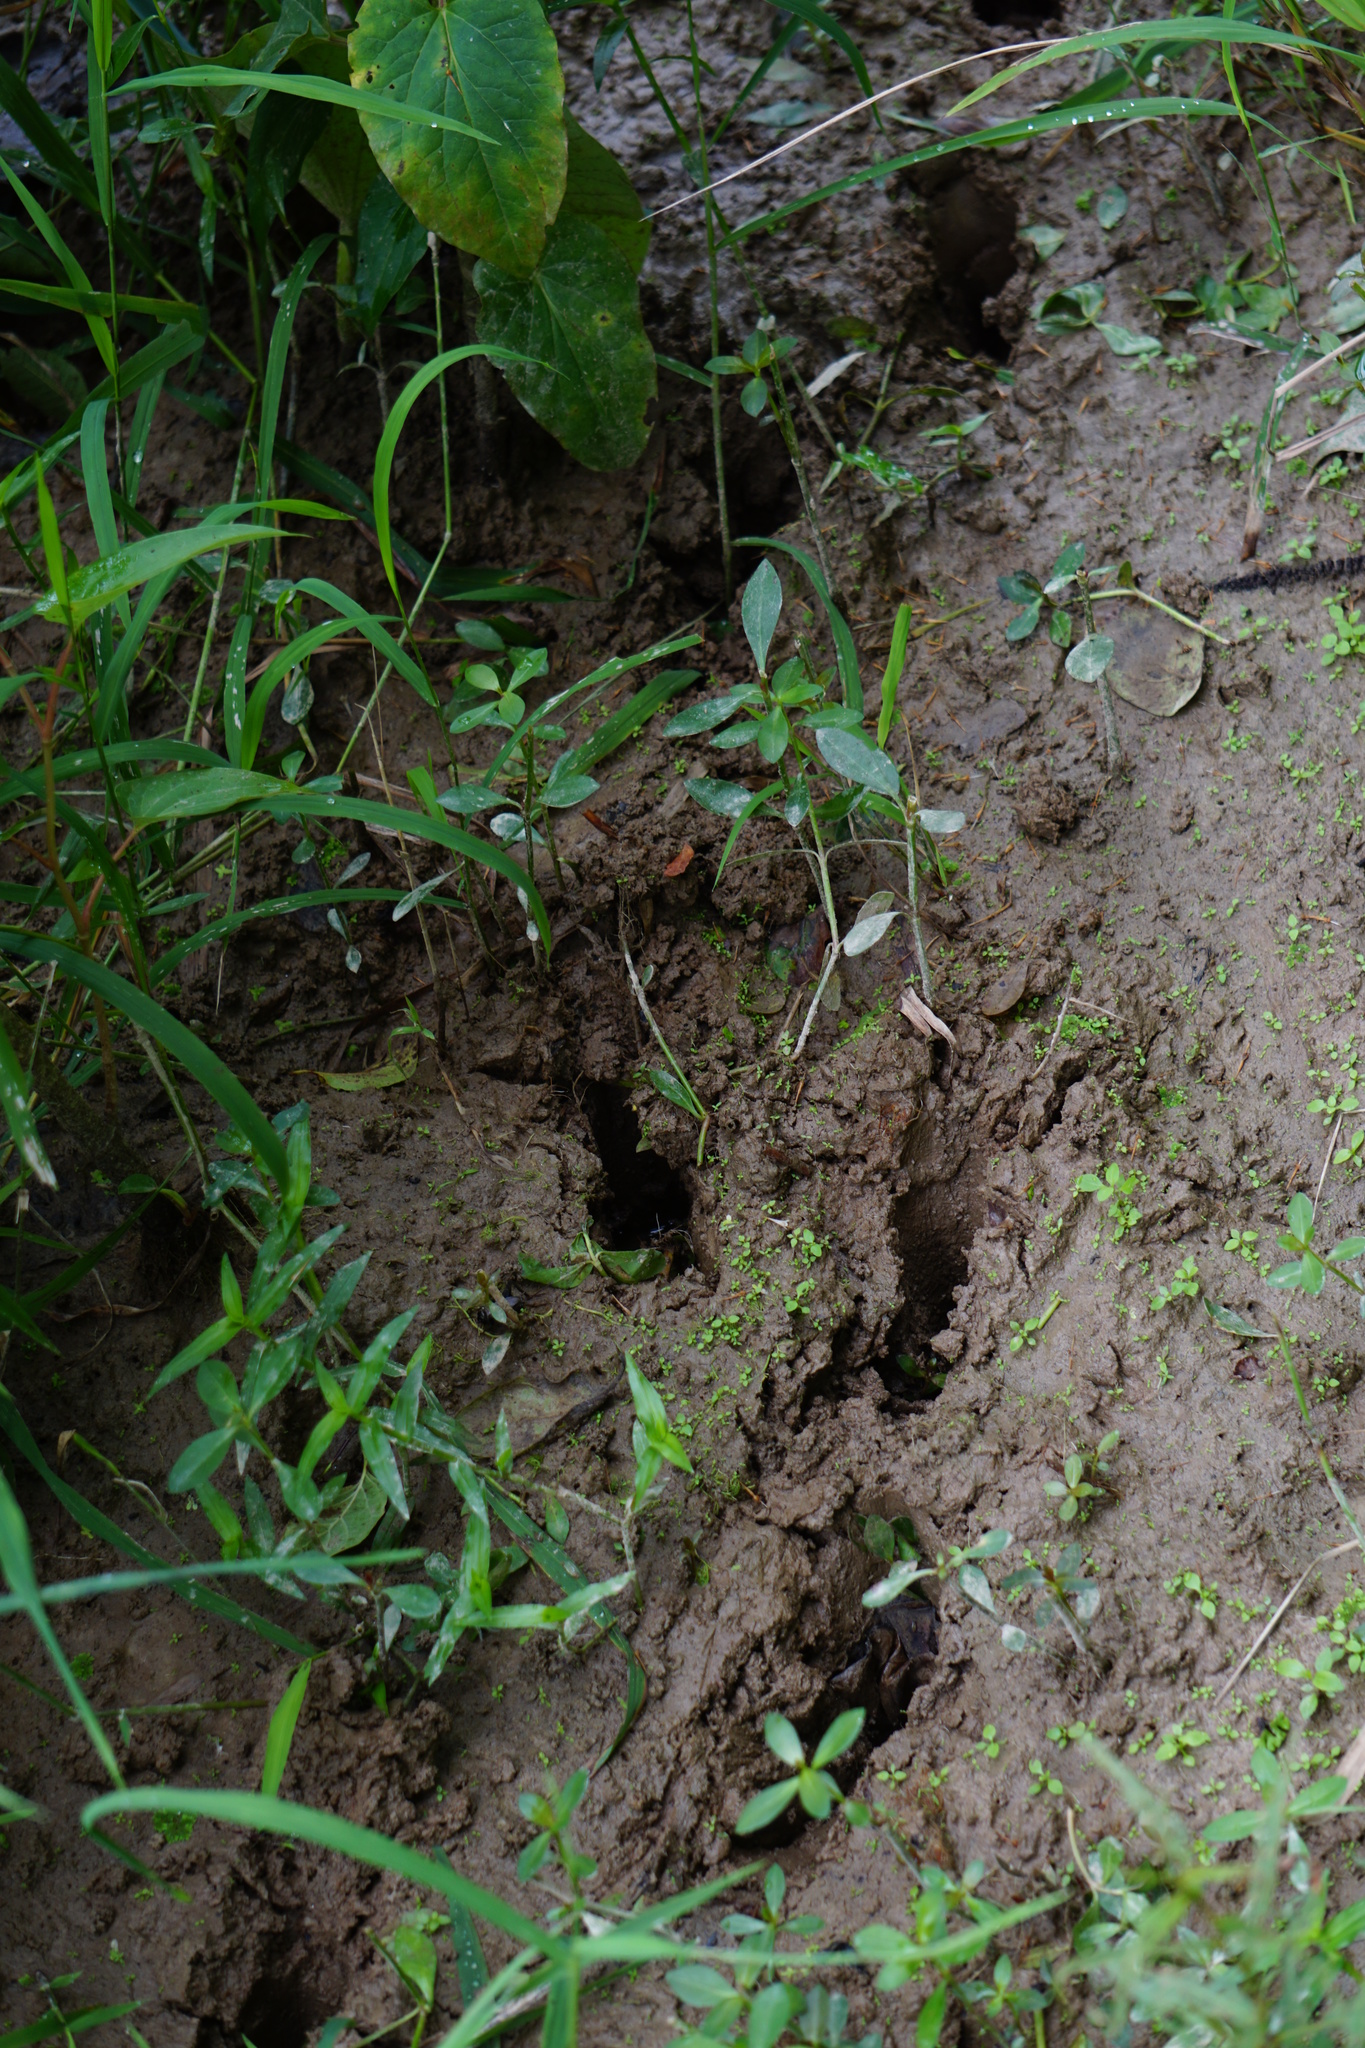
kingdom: Animalia
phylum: Chordata
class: Mammalia
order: Artiodactyla
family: Cervidae
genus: Odocoileus
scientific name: Odocoileus virginianus
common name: White-tailed deer
